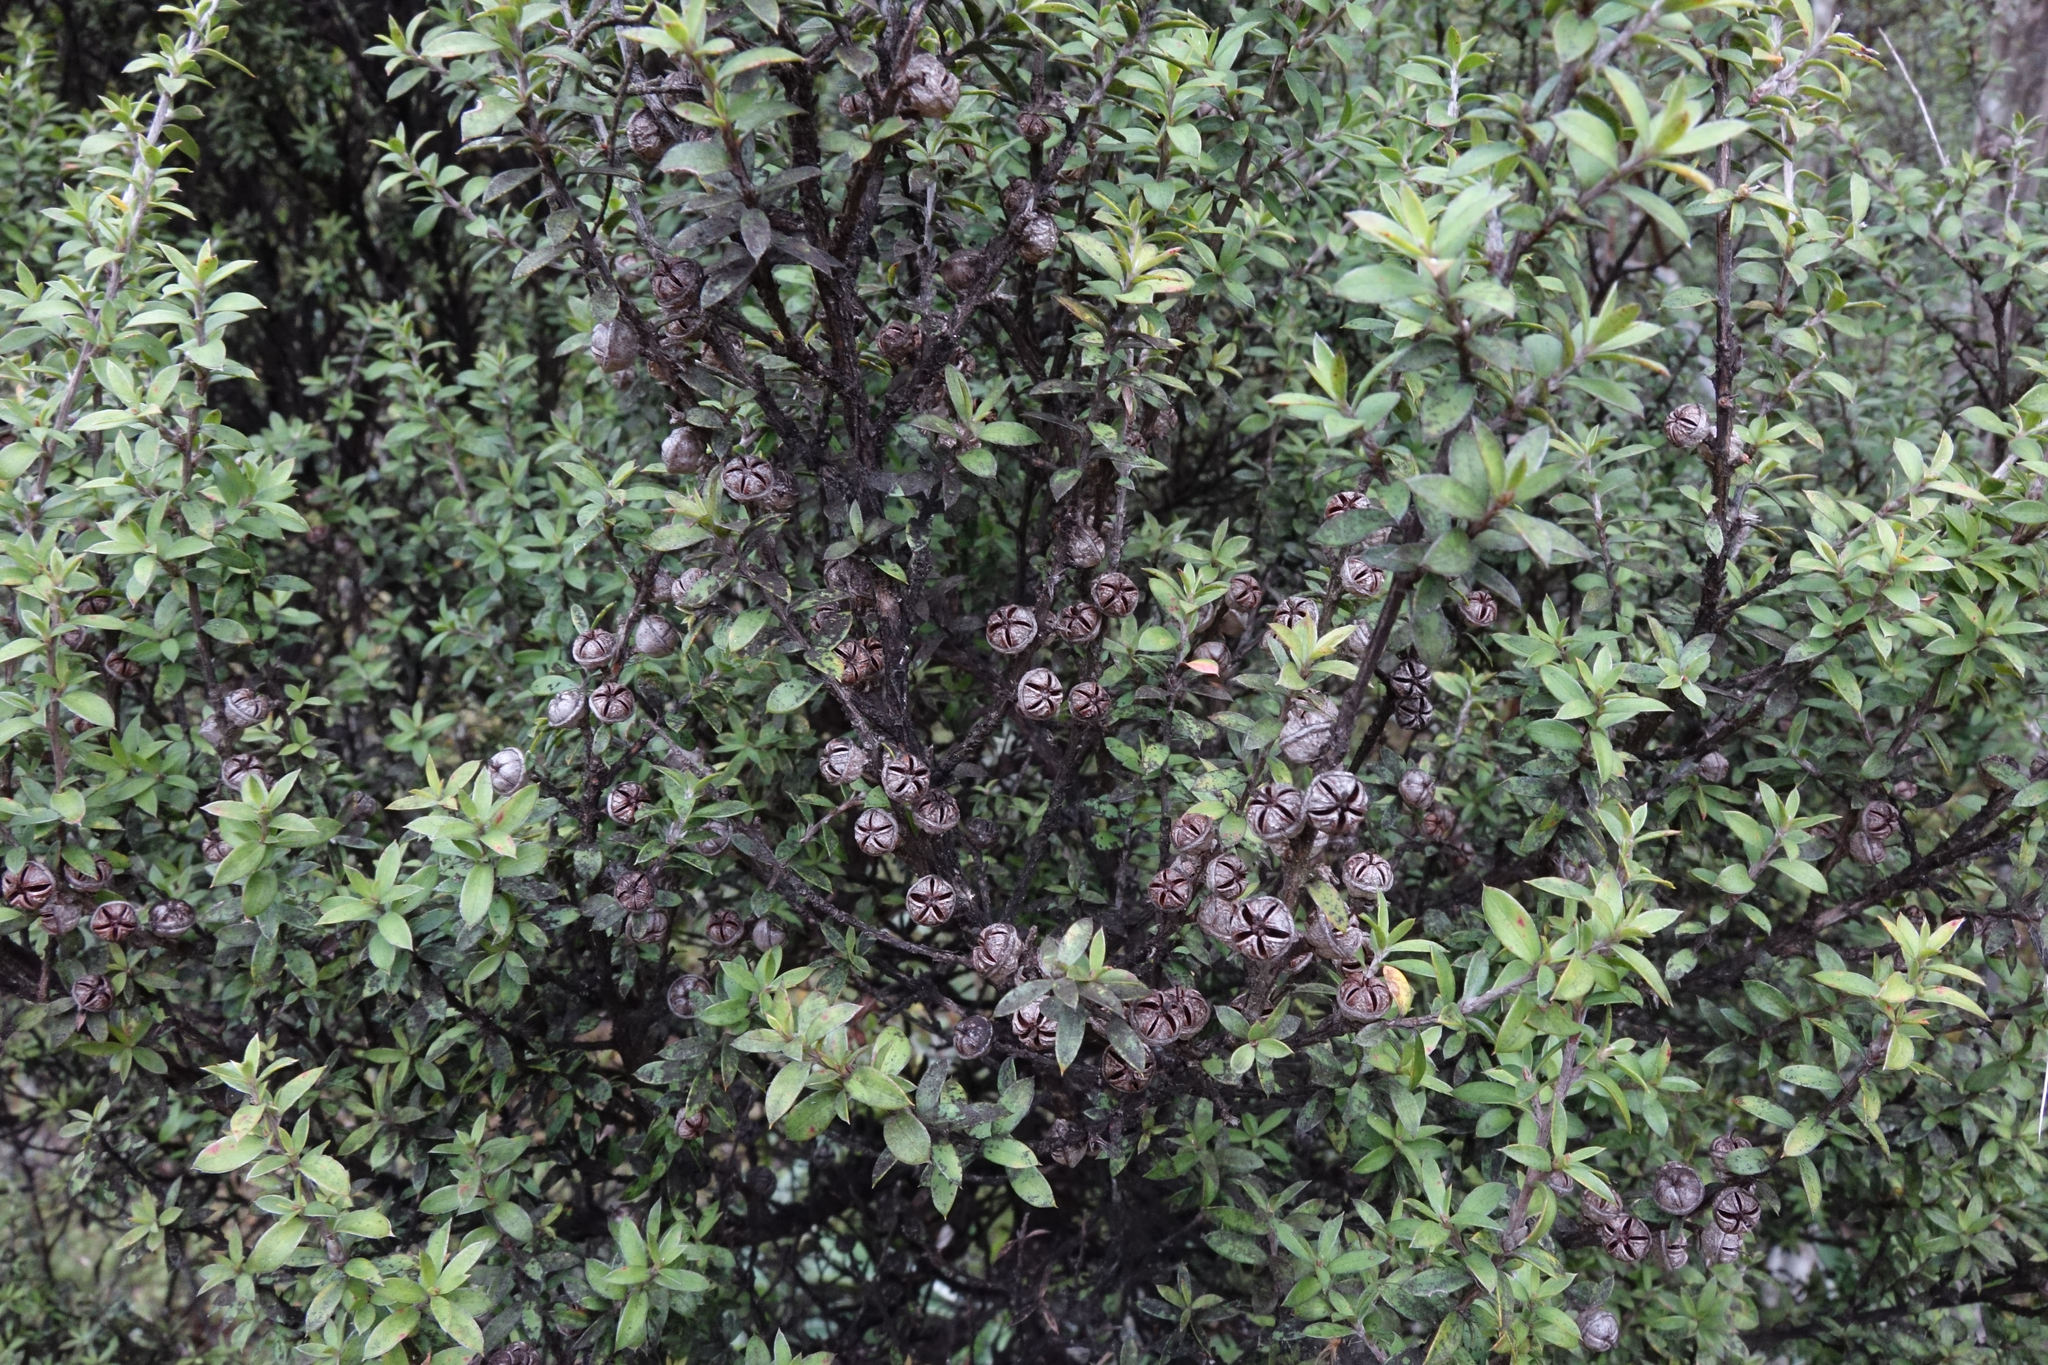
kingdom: Plantae
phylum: Tracheophyta
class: Magnoliopsida
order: Myrtales
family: Myrtaceae
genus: Leptospermum
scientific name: Leptospermum scoparium
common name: Broom tea-tree
